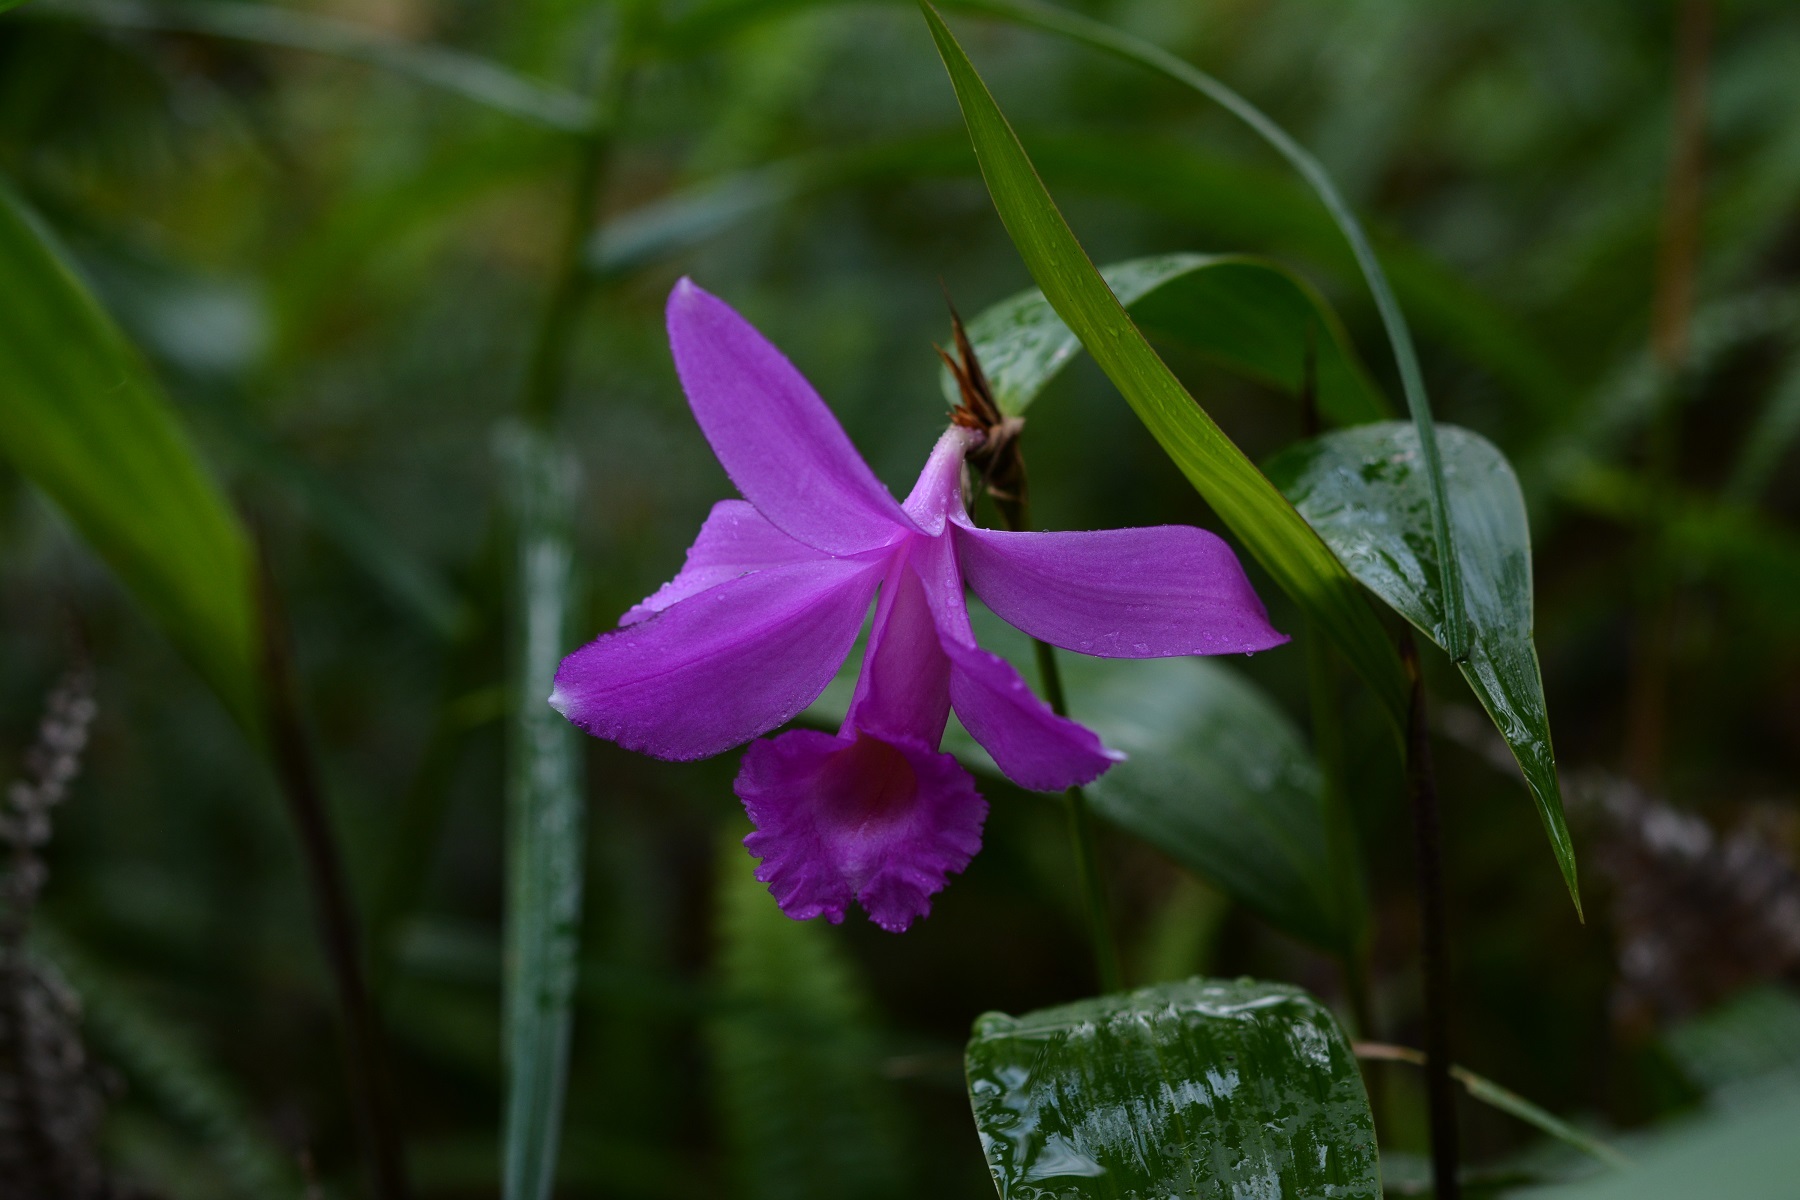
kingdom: Plantae
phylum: Tracheophyta
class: Liliopsida
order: Asparagales
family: Orchidaceae
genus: Sobralia
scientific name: Sobralia macdougallii
